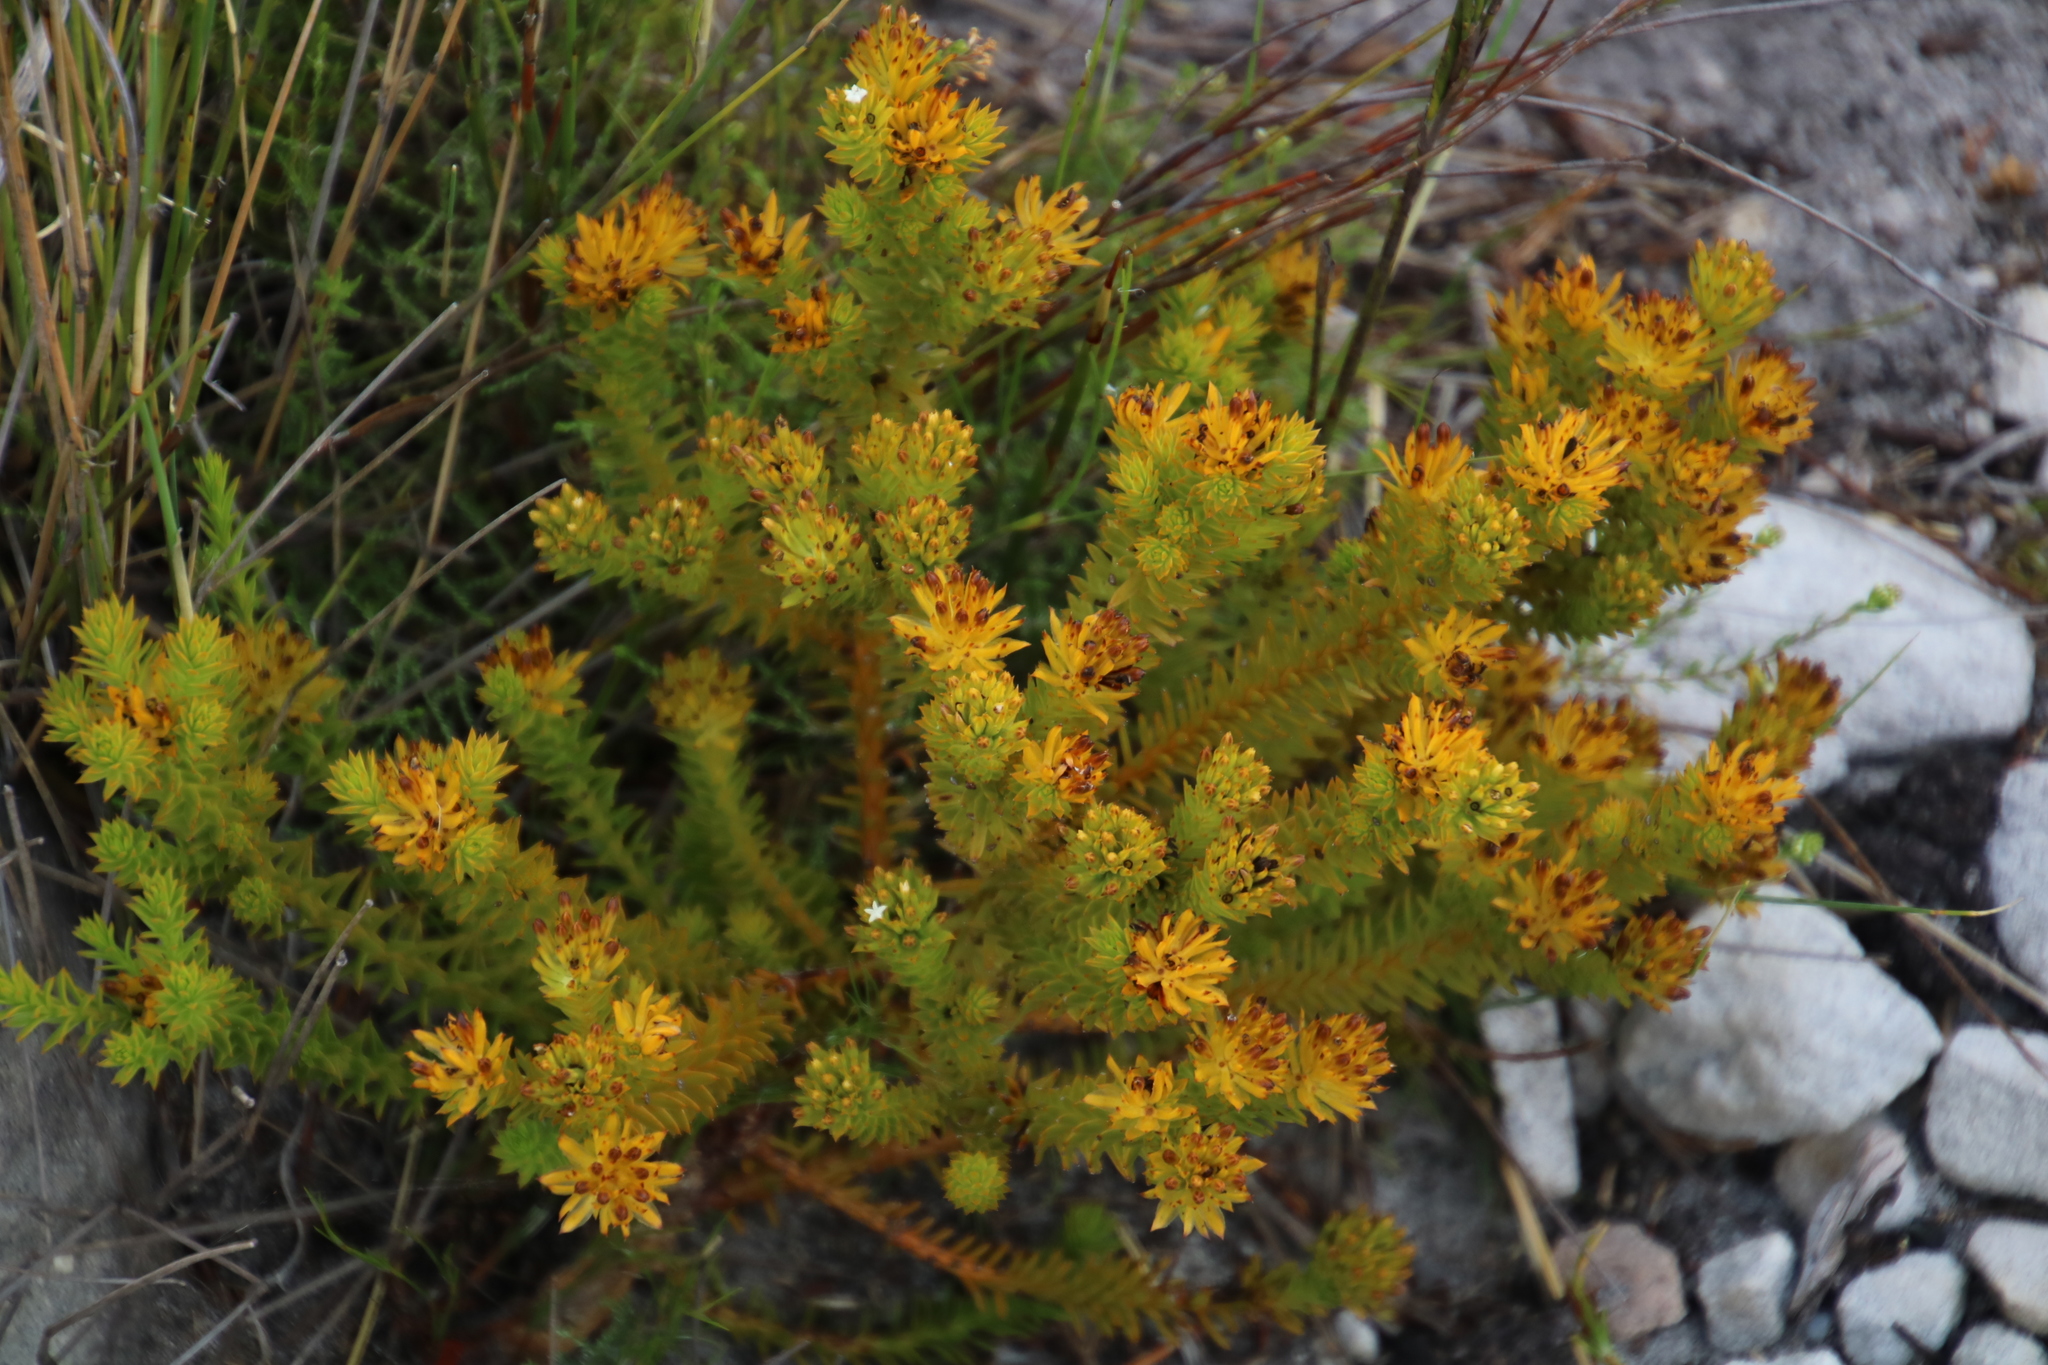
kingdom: Plantae
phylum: Tracheophyta
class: Magnoliopsida
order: Santalales
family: Thesiaceae
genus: Thesium
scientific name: Thesium viridifolium
